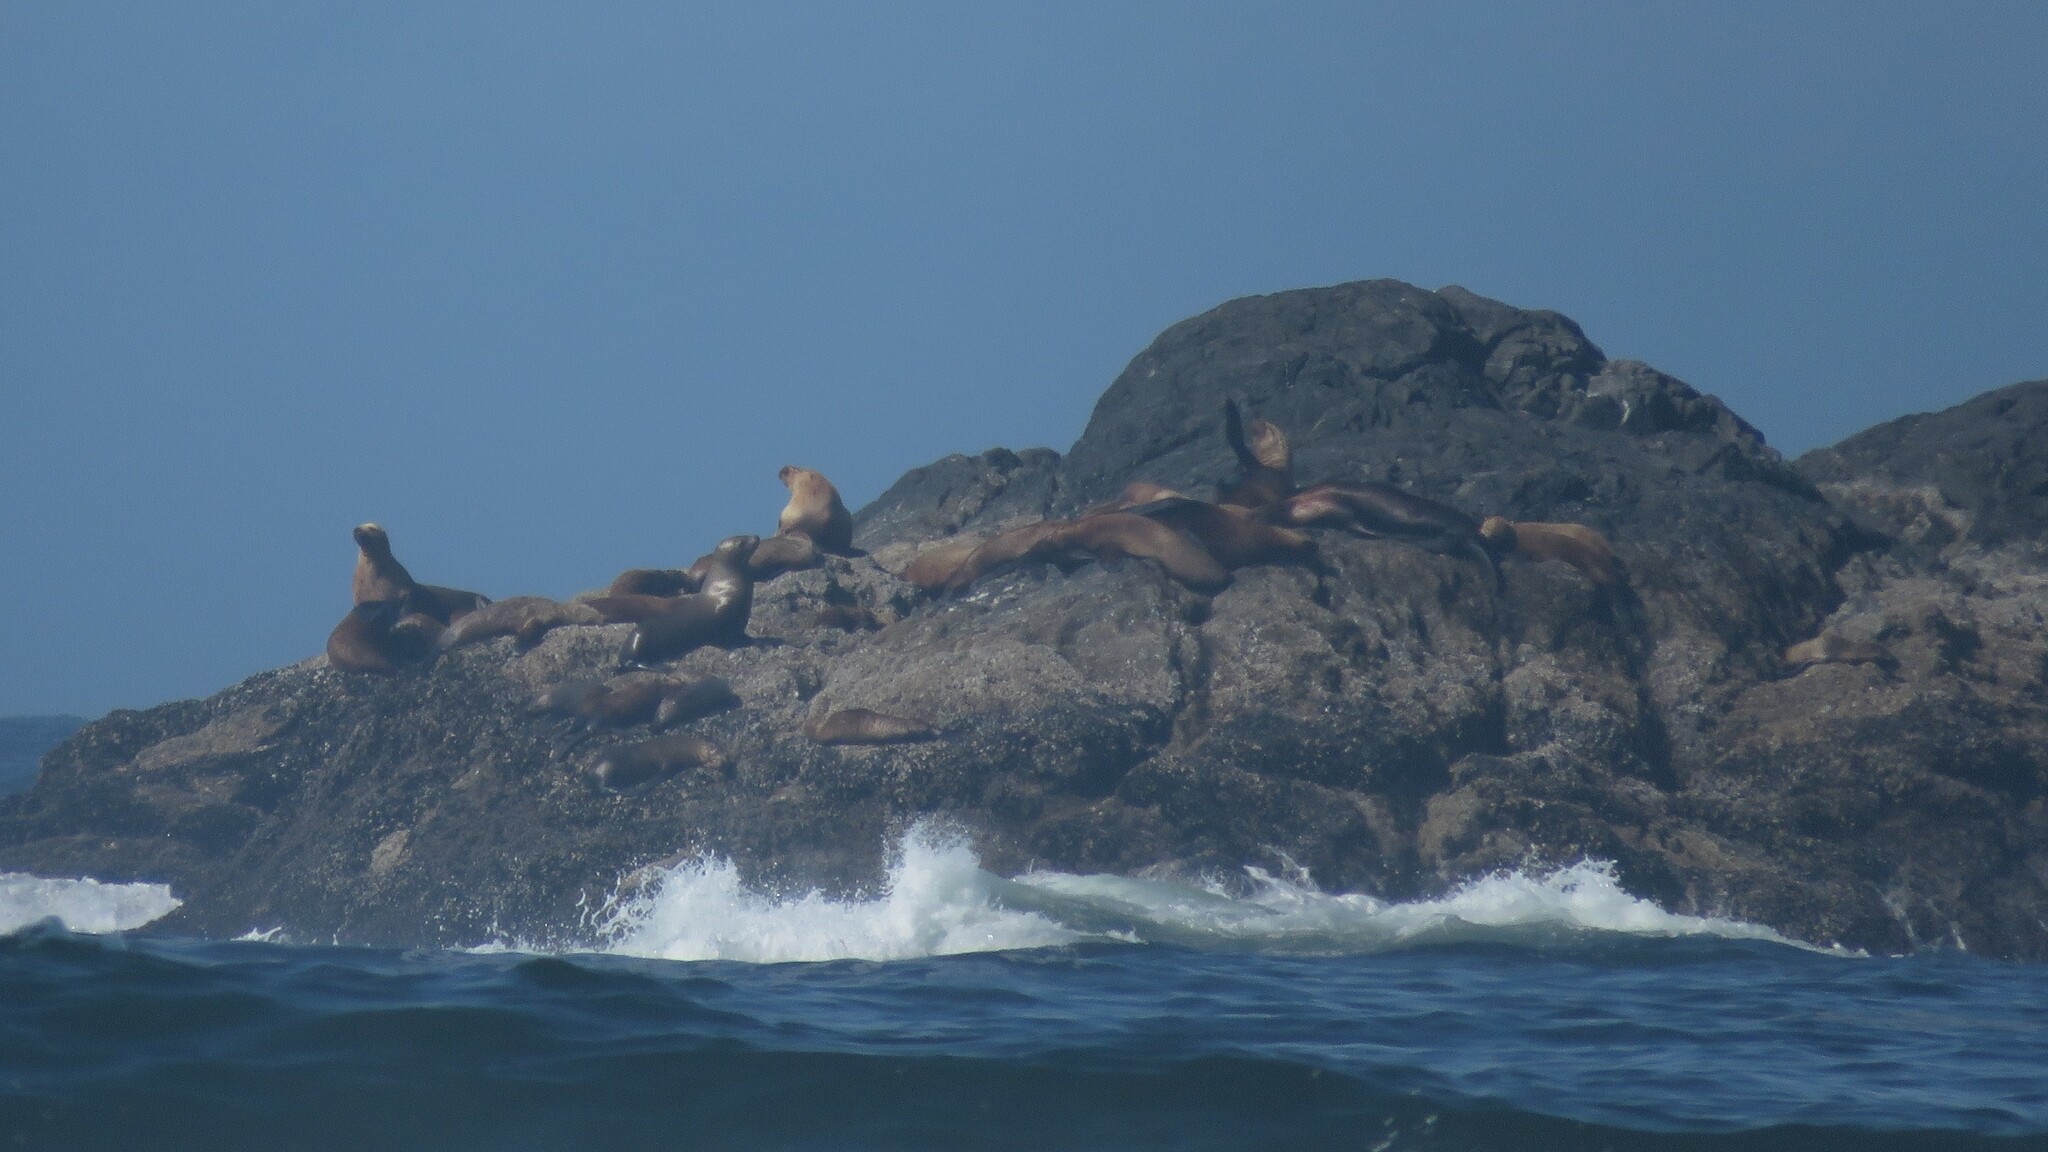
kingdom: Animalia
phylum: Chordata
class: Mammalia
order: Carnivora
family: Otariidae
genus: Eumetopias
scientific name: Eumetopias jubatus
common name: Steller sea lion
